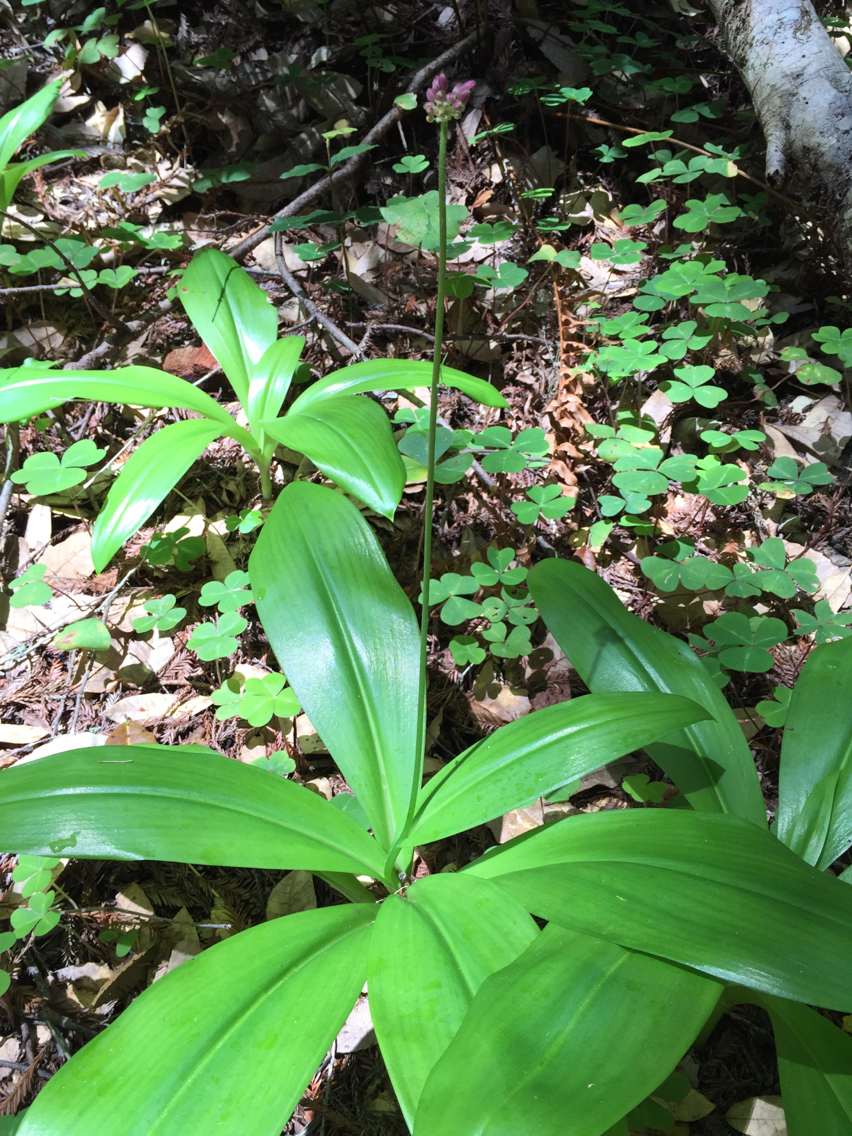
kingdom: Plantae
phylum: Tracheophyta
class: Liliopsida
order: Liliales
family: Liliaceae
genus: Clintonia
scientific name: Clintonia andrewsiana
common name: Red clintonia
